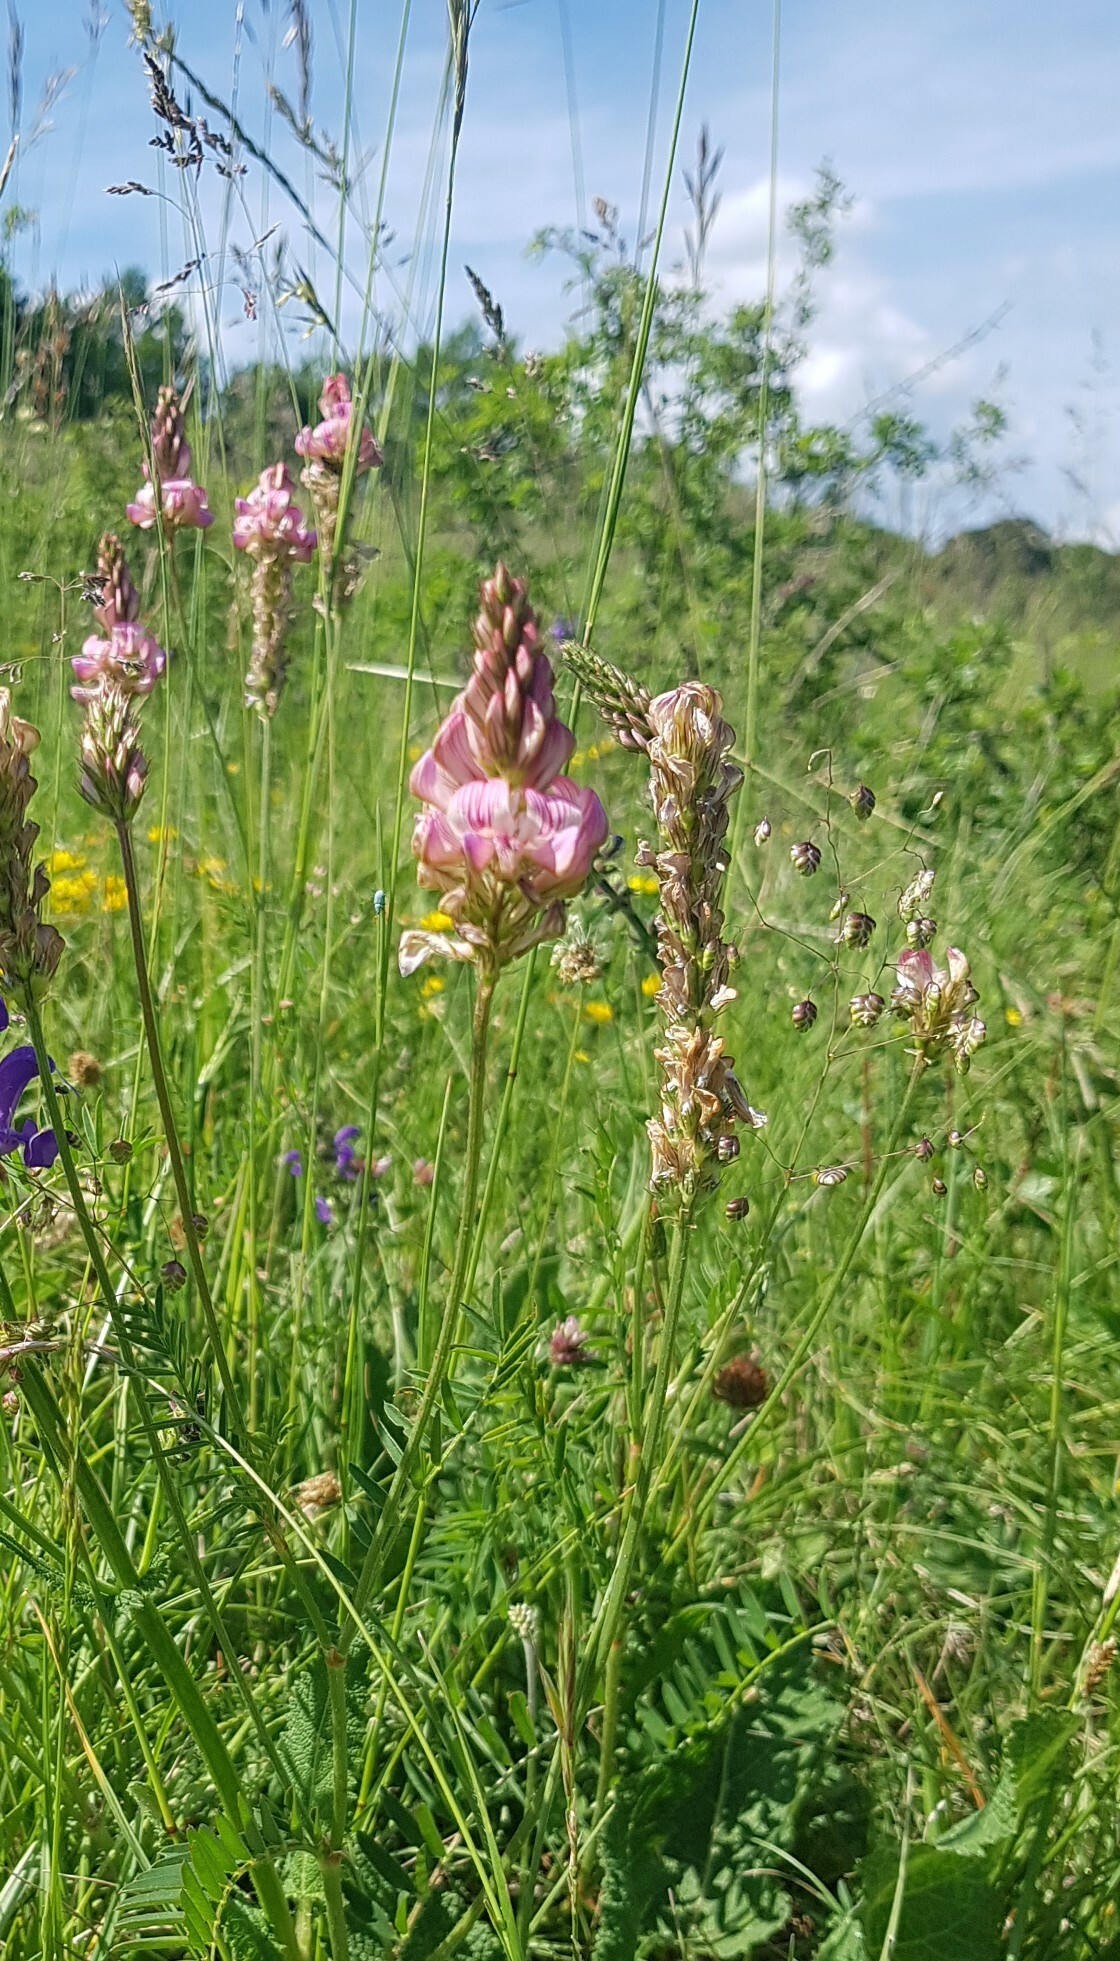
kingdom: Plantae
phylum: Tracheophyta
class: Magnoliopsida
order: Fabales
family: Fabaceae
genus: Onobrychis
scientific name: Onobrychis viciifolia
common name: Sainfoin
